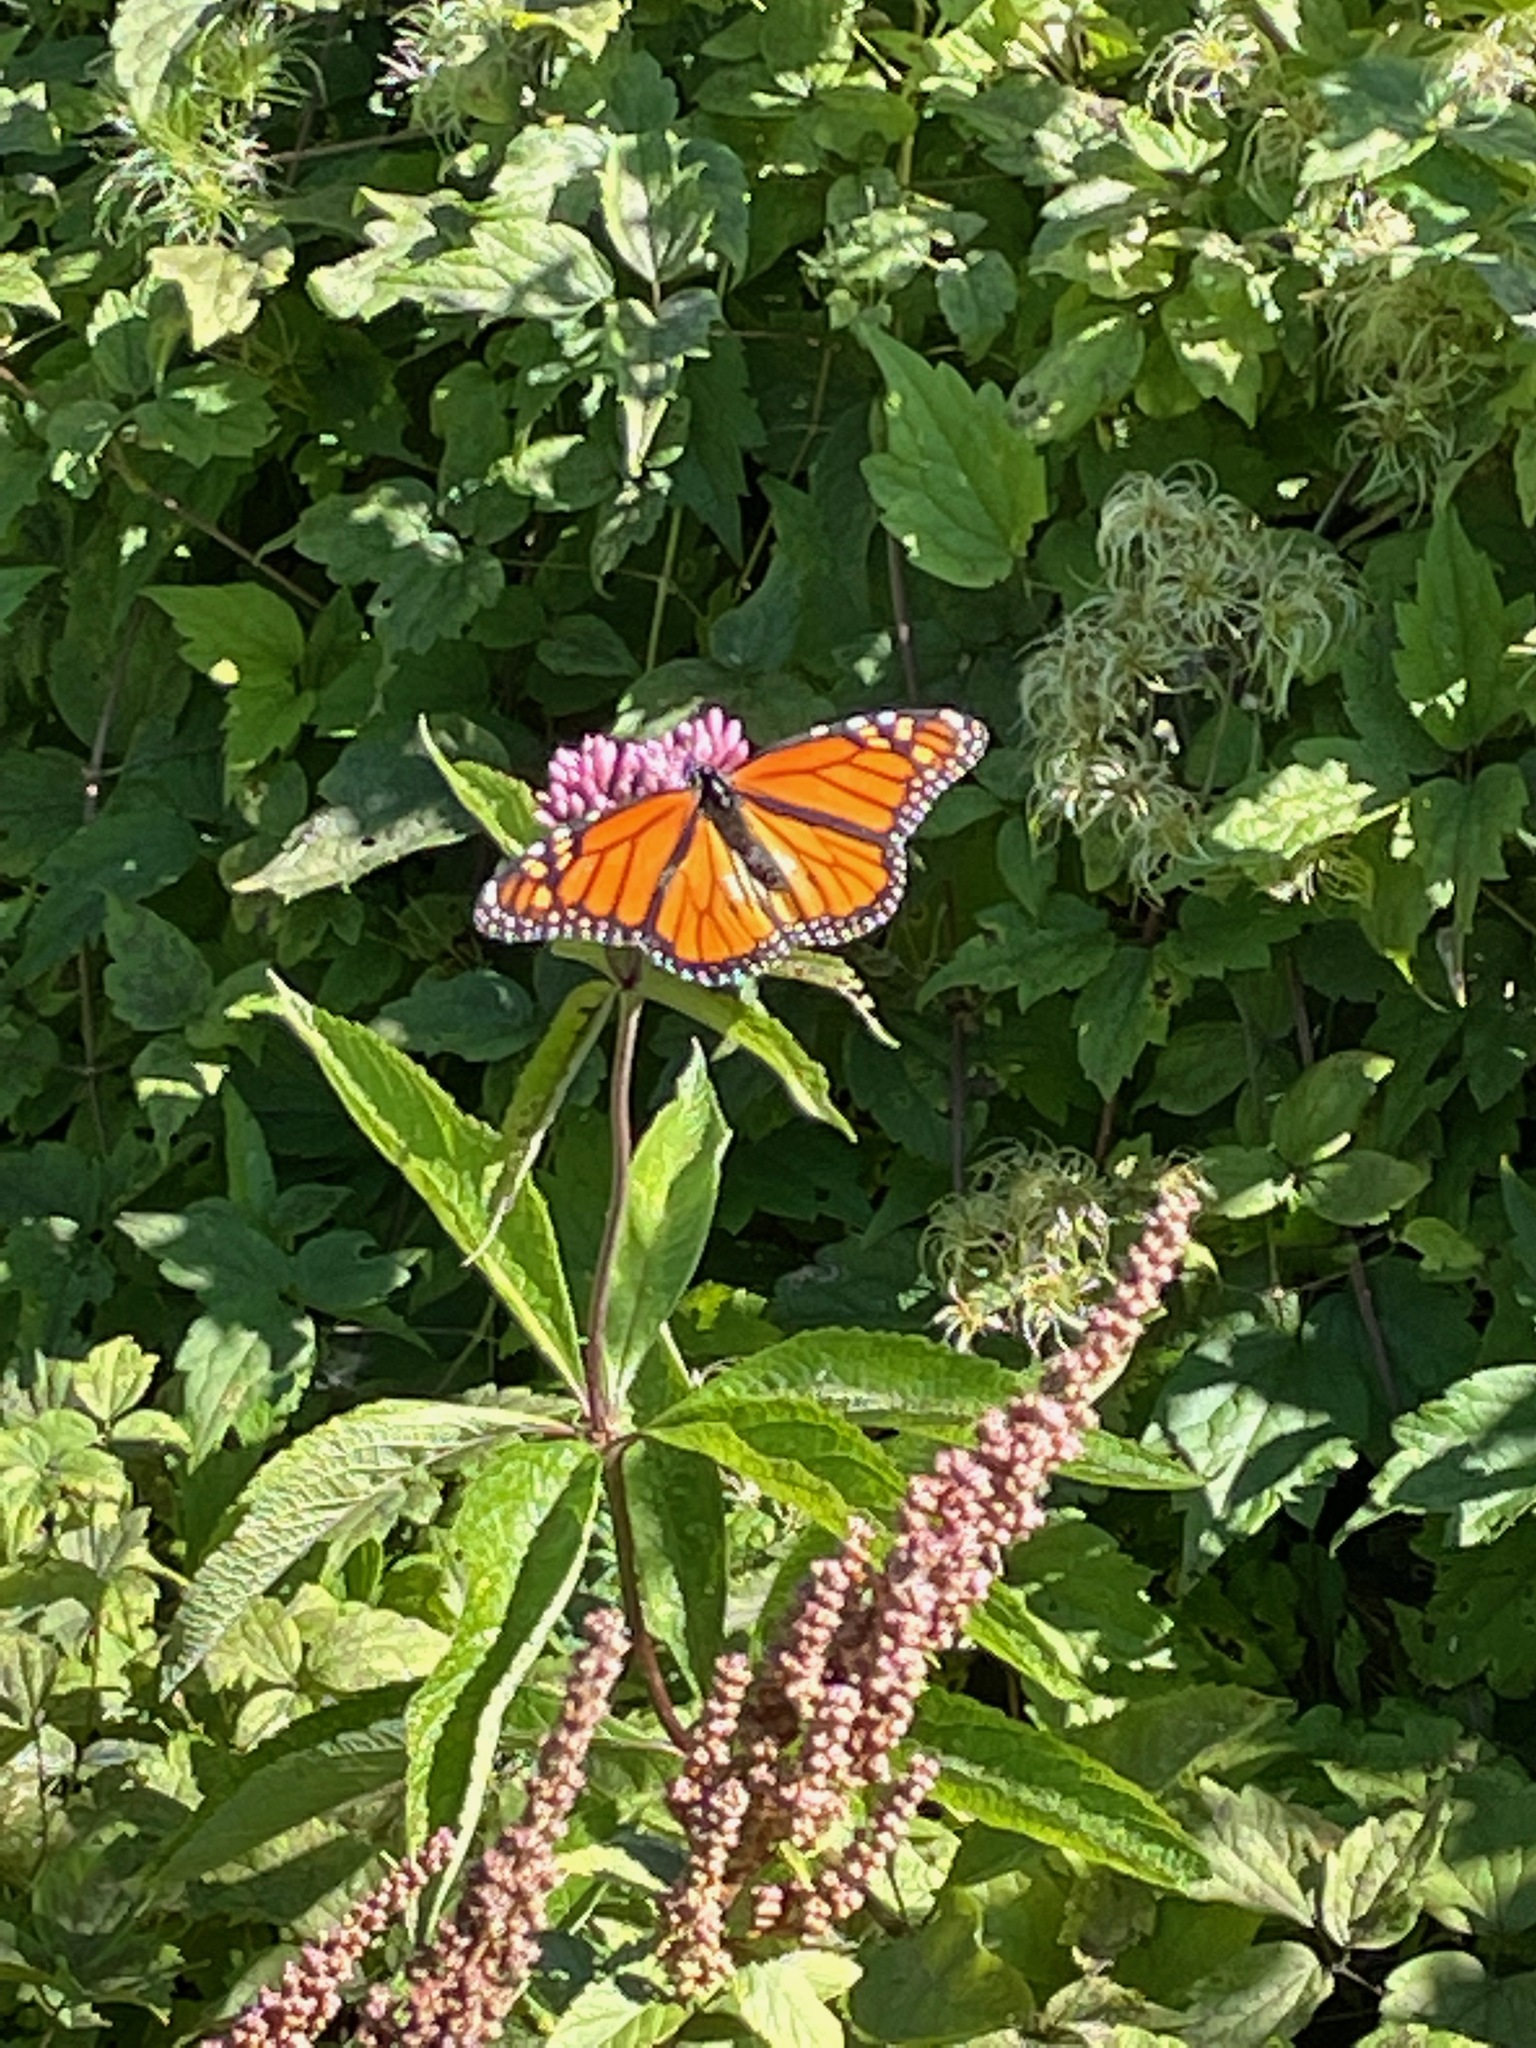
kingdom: Animalia
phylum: Arthropoda
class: Insecta
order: Lepidoptera
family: Nymphalidae
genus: Danaus
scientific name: Danaus plexippus
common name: Monarch
